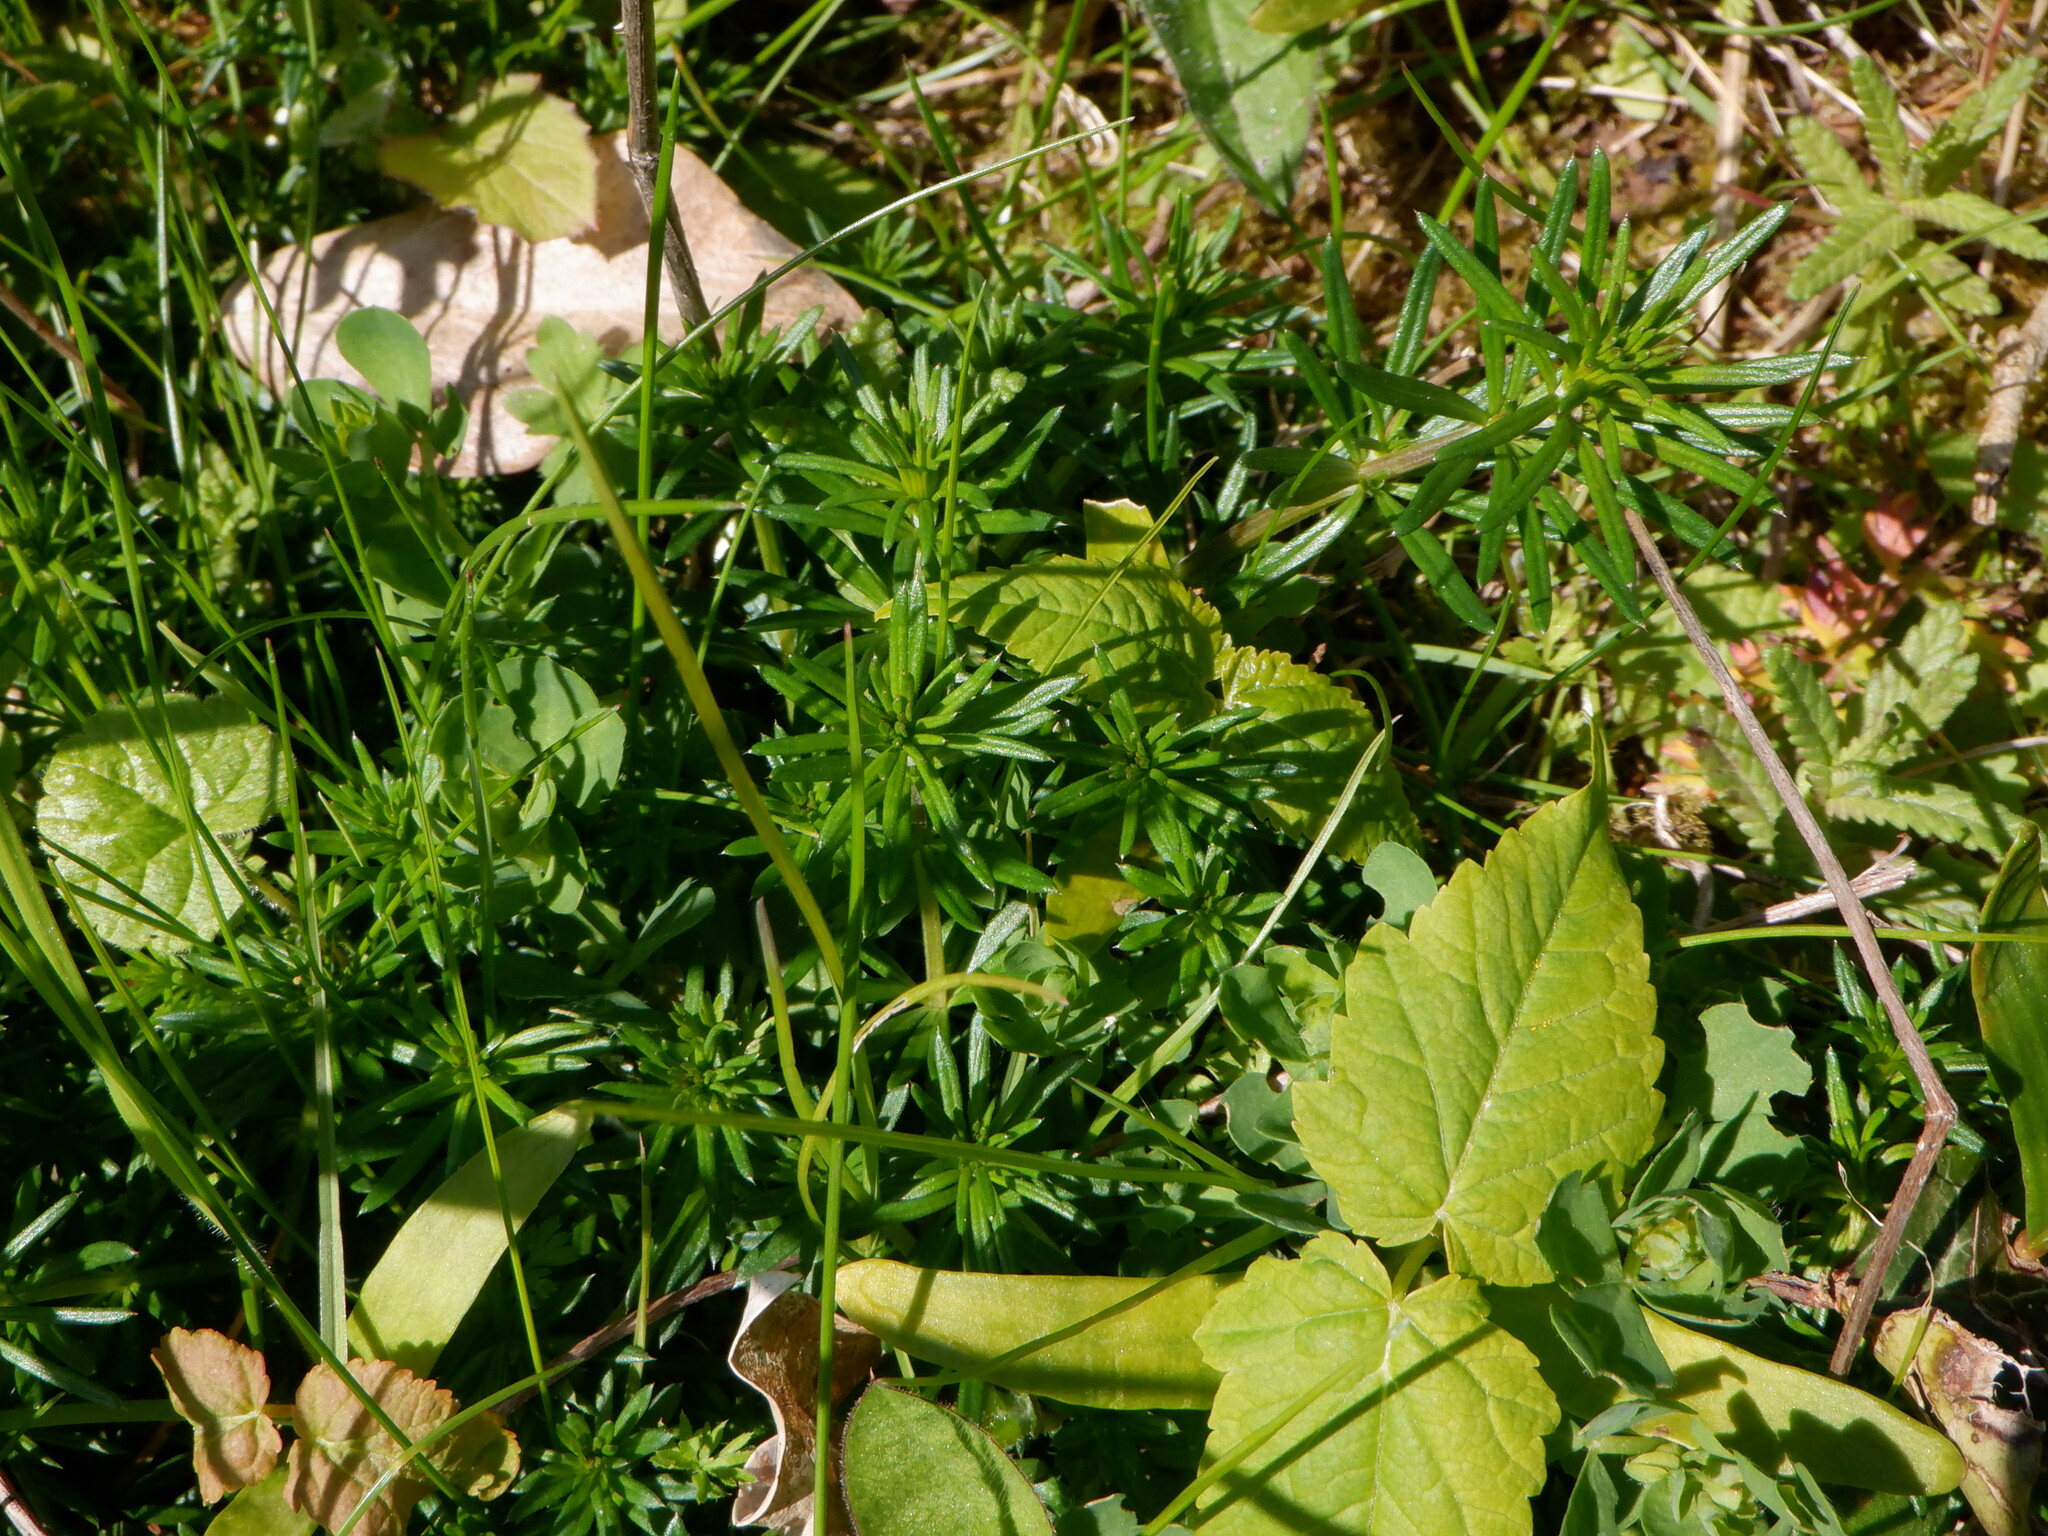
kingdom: Plantae
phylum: Tracheophyta
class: Magnoliopsida
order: Gentianales
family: Rubiaceae
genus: Galium
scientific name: Galium verum
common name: Lady's bedstraw
